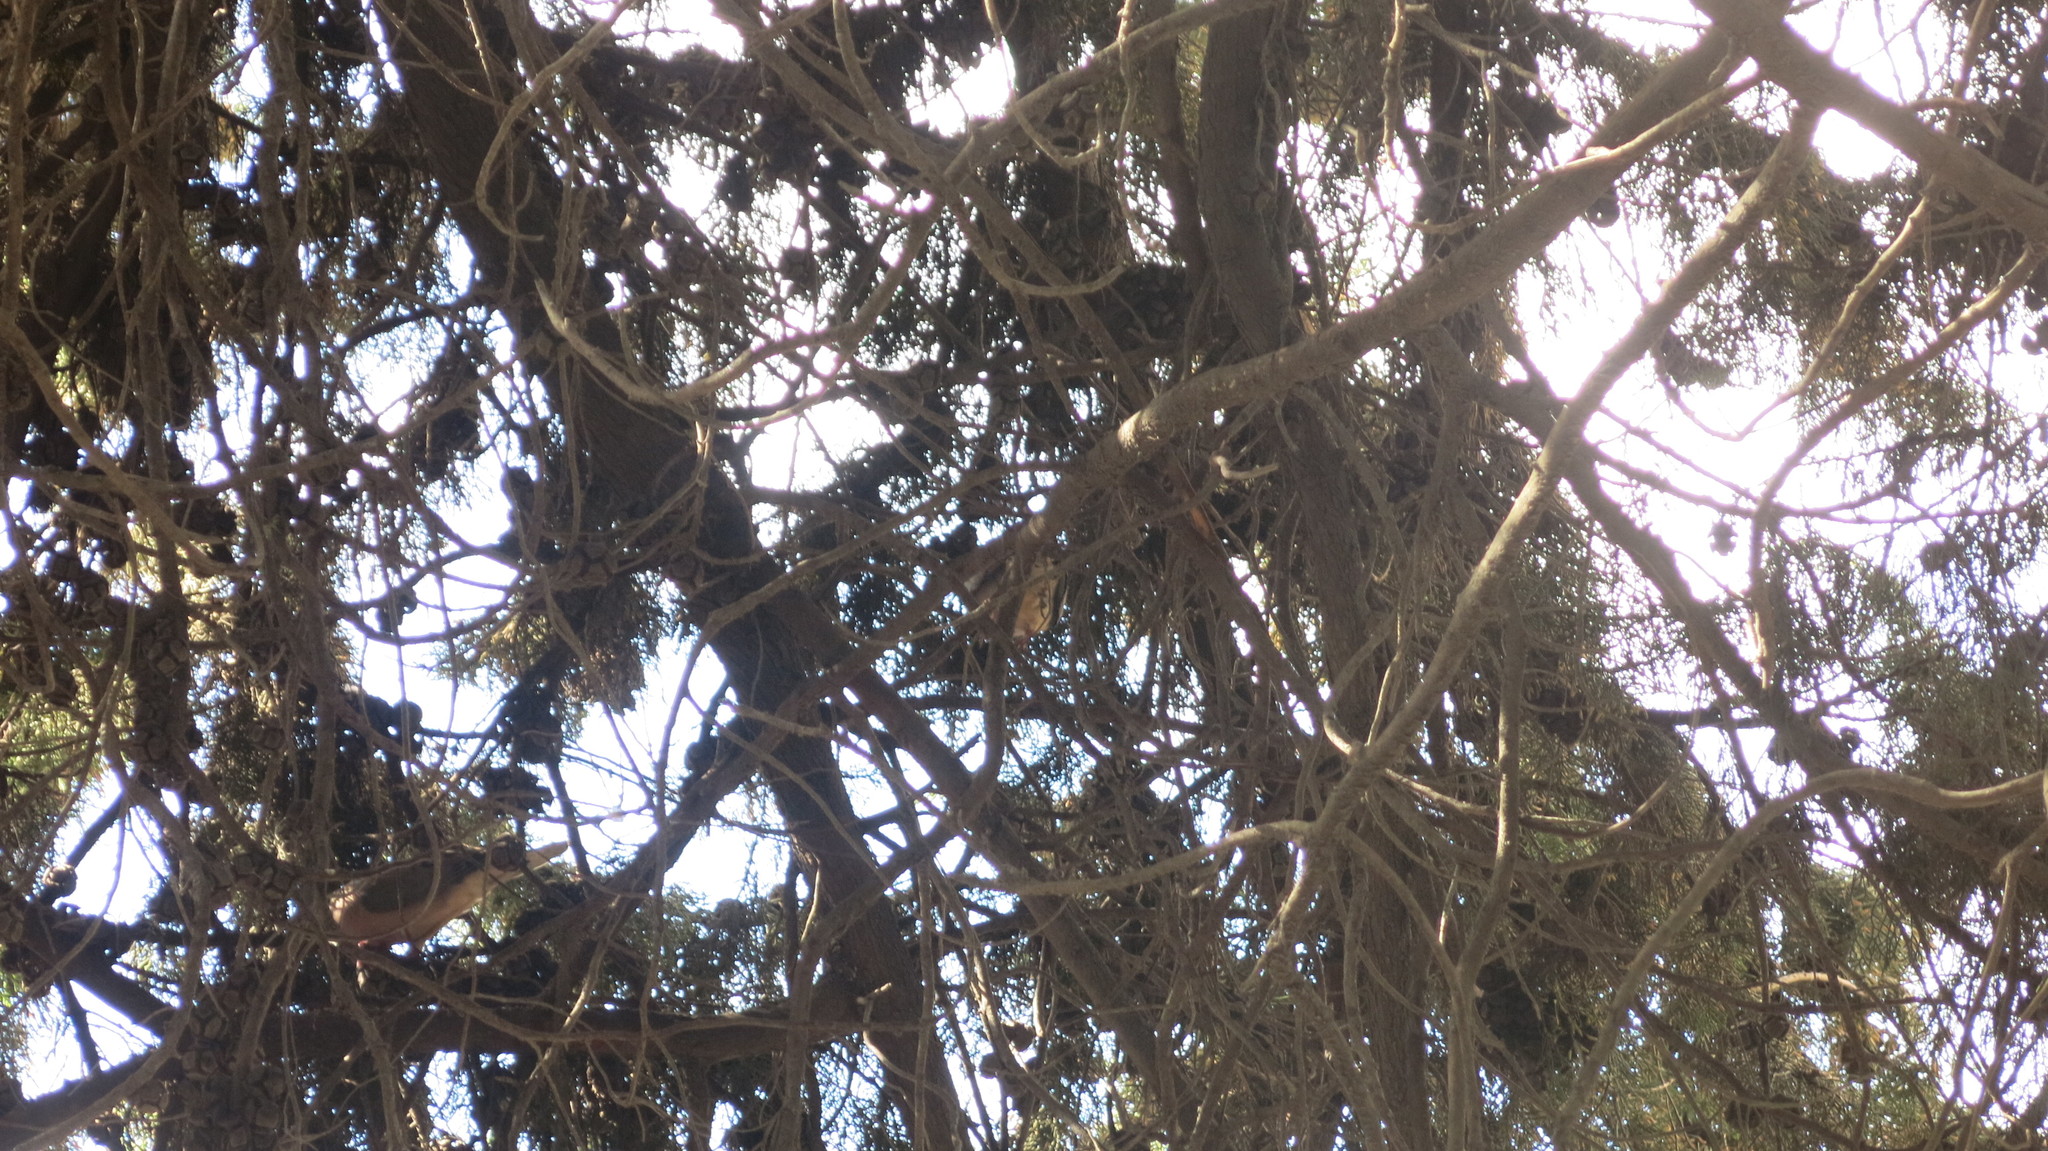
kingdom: Animalia
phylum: Chordata
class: Aves
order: Columbiformes
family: Columbidae
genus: Zenaida
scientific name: Zenaida auriculata
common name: Eared dove
